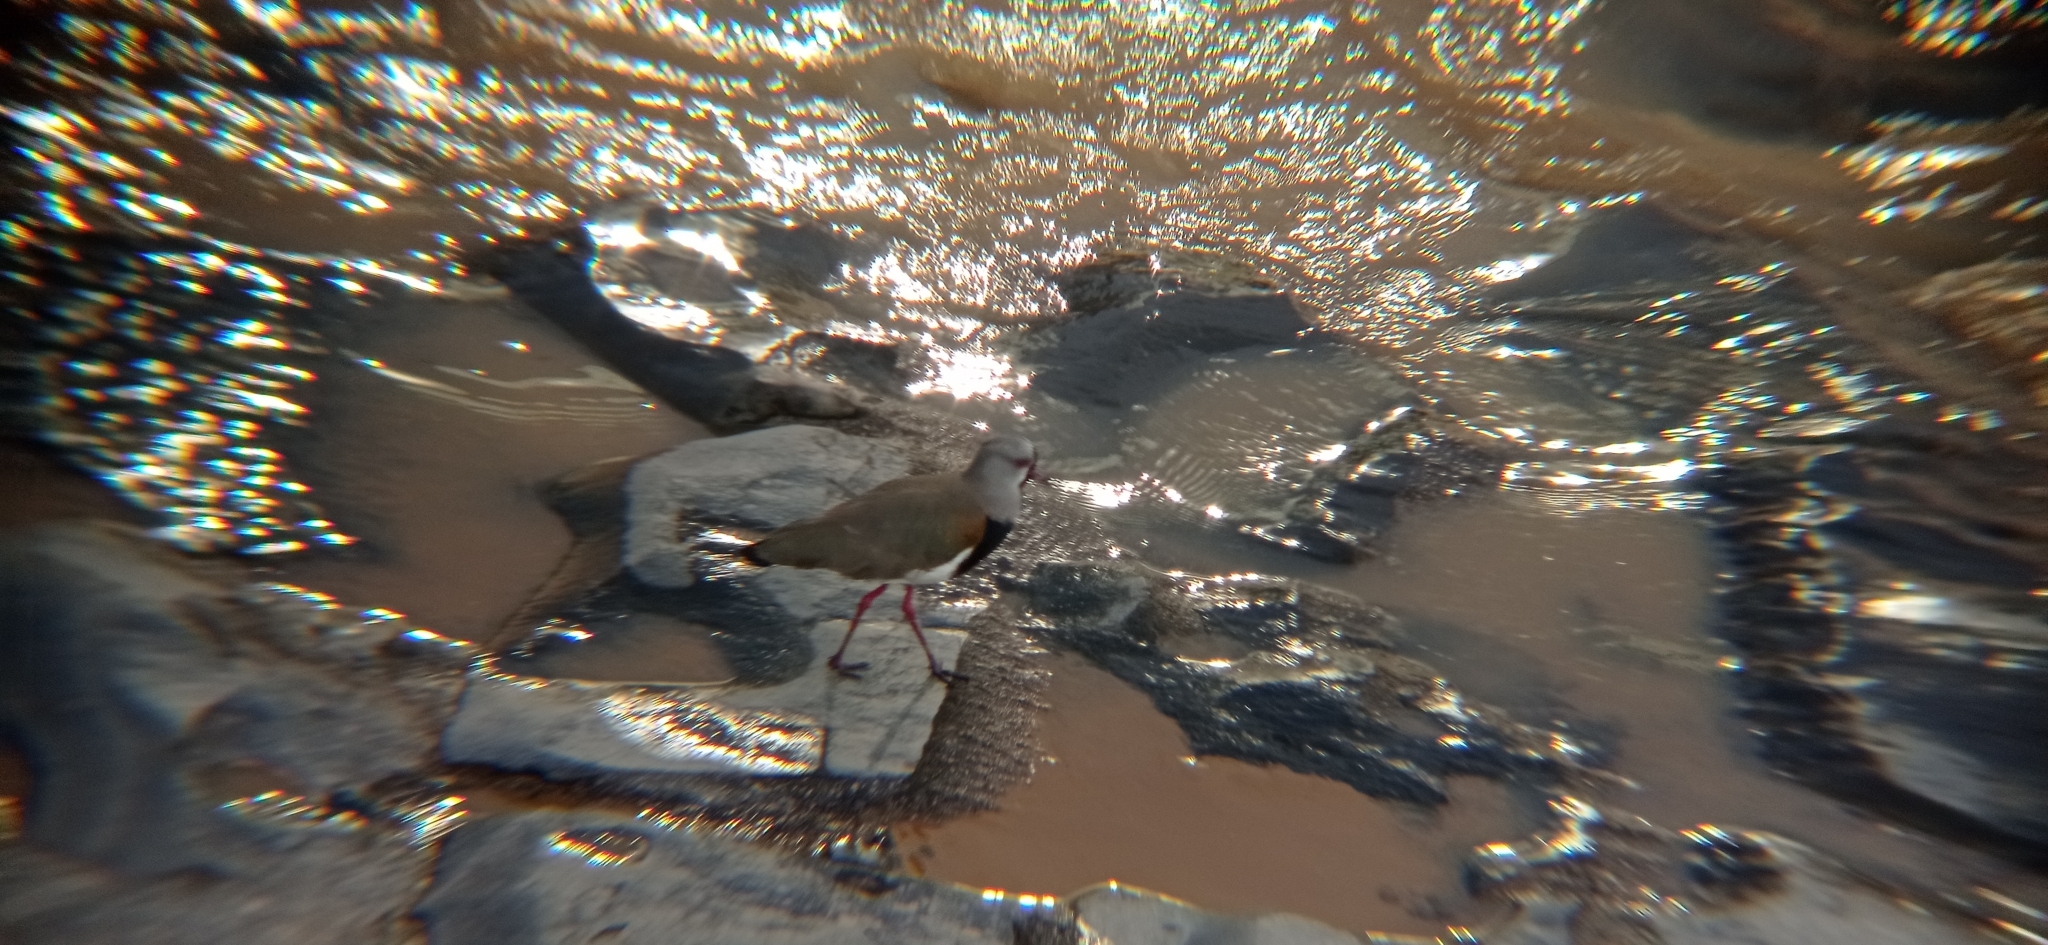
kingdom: Animalia
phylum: Chordata
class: Aves
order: Charadriiformes
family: Charadriidae
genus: Vanellus
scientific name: Vanellus chilensis
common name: Southern lapwing
